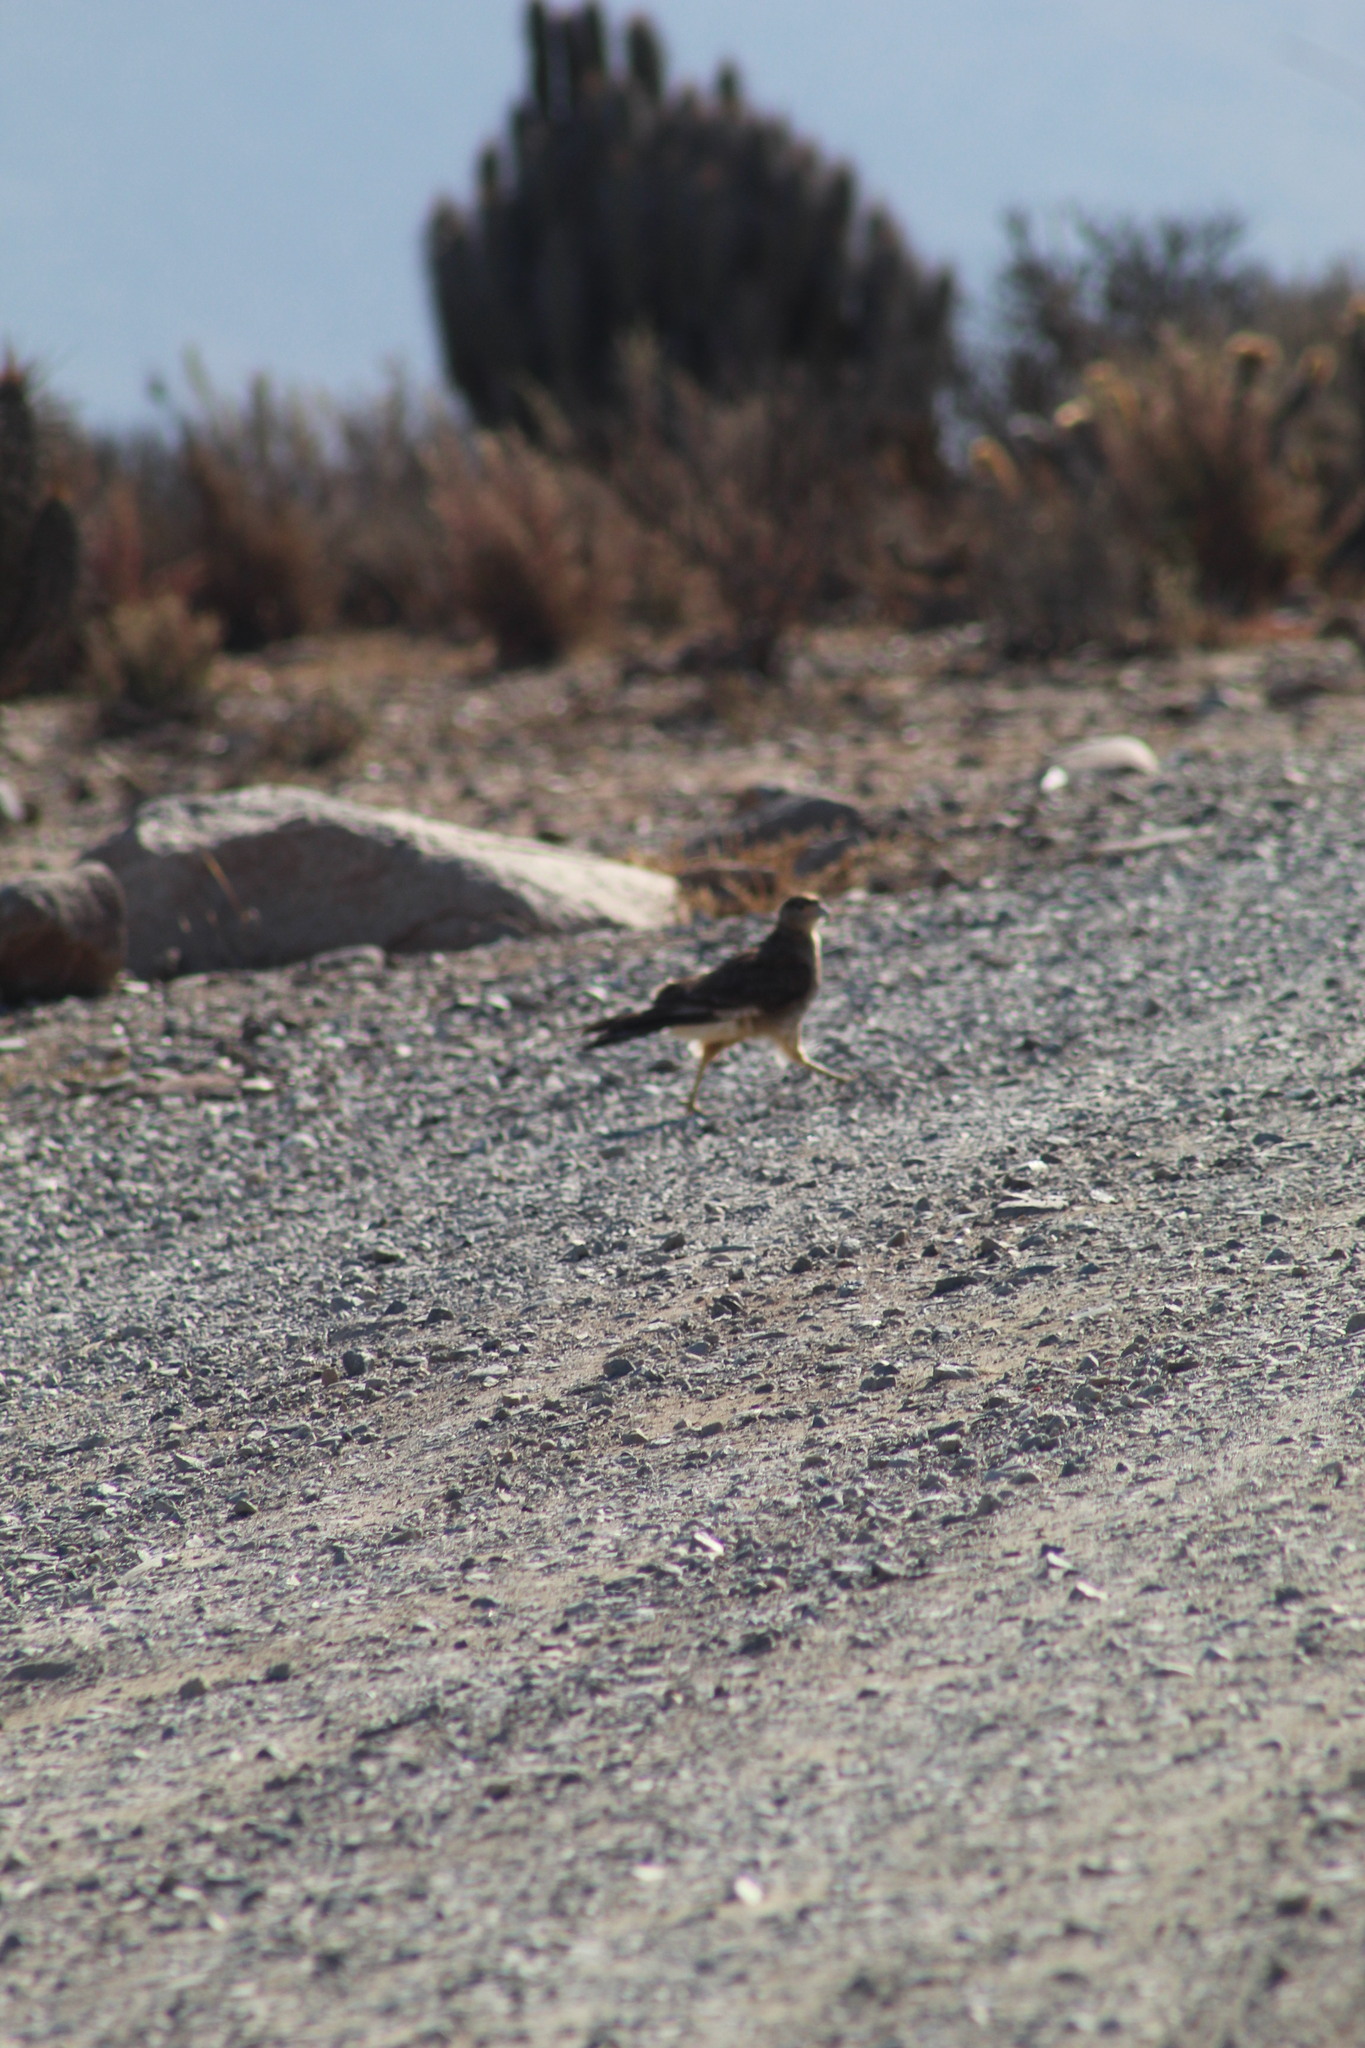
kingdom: Animalia
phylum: Chordata
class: Aves
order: Falconiformes
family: Falconidae
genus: Daptrius
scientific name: Daptrius
